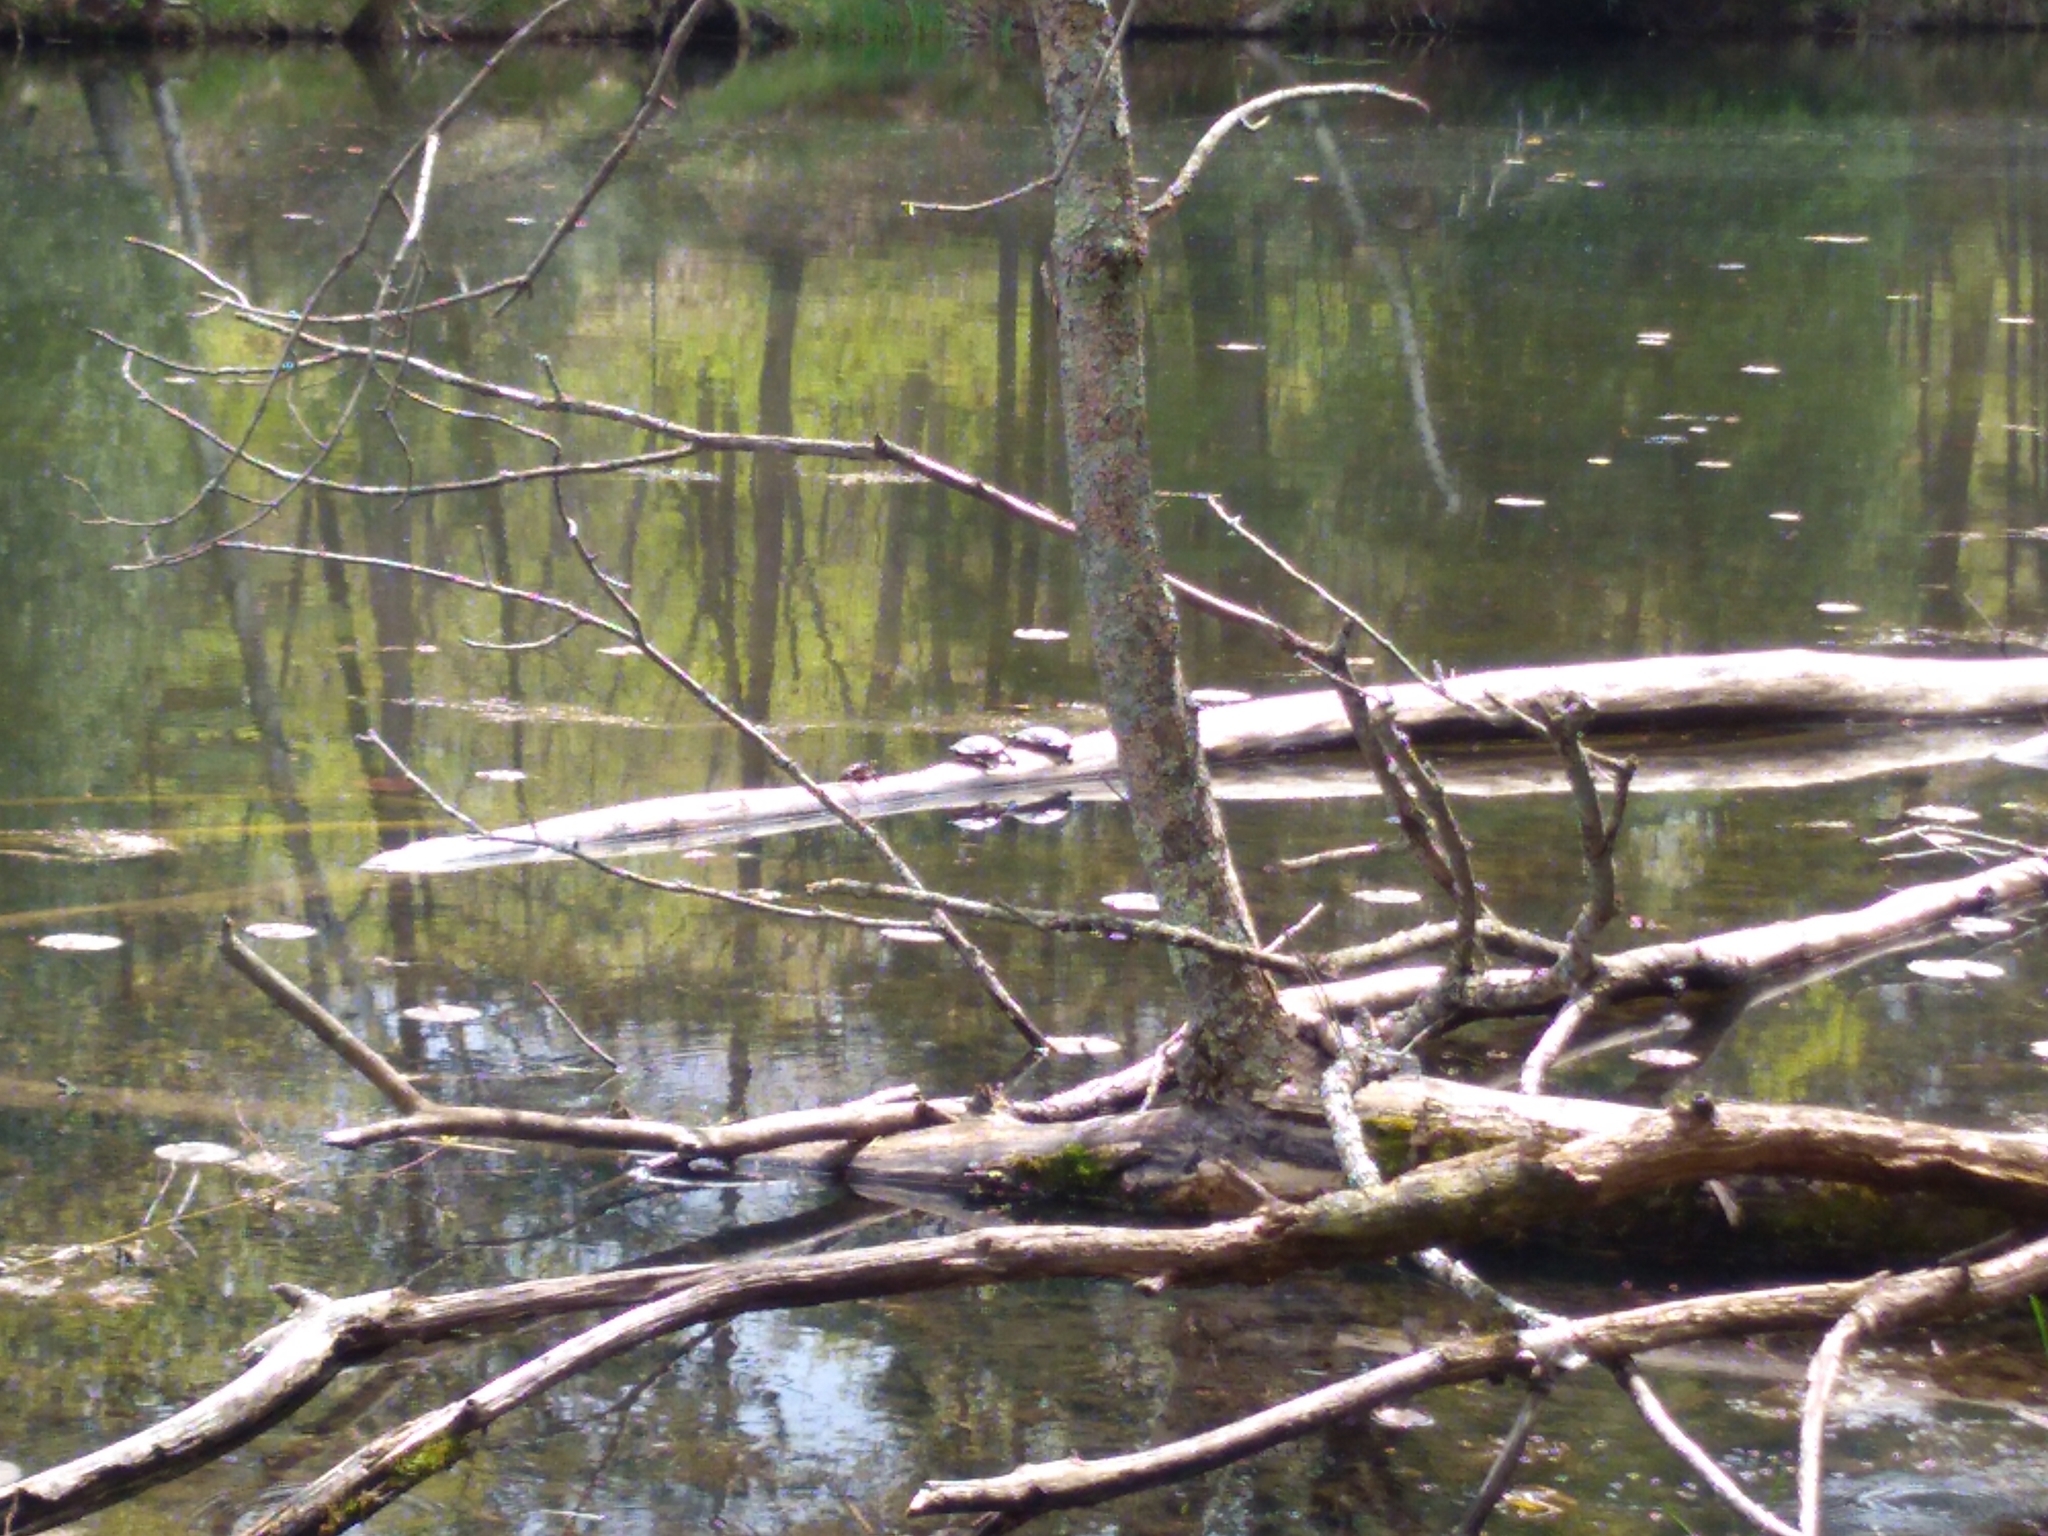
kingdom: Animalia
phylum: Chordata
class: Testudines
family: Emydidae
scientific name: Emydidae
